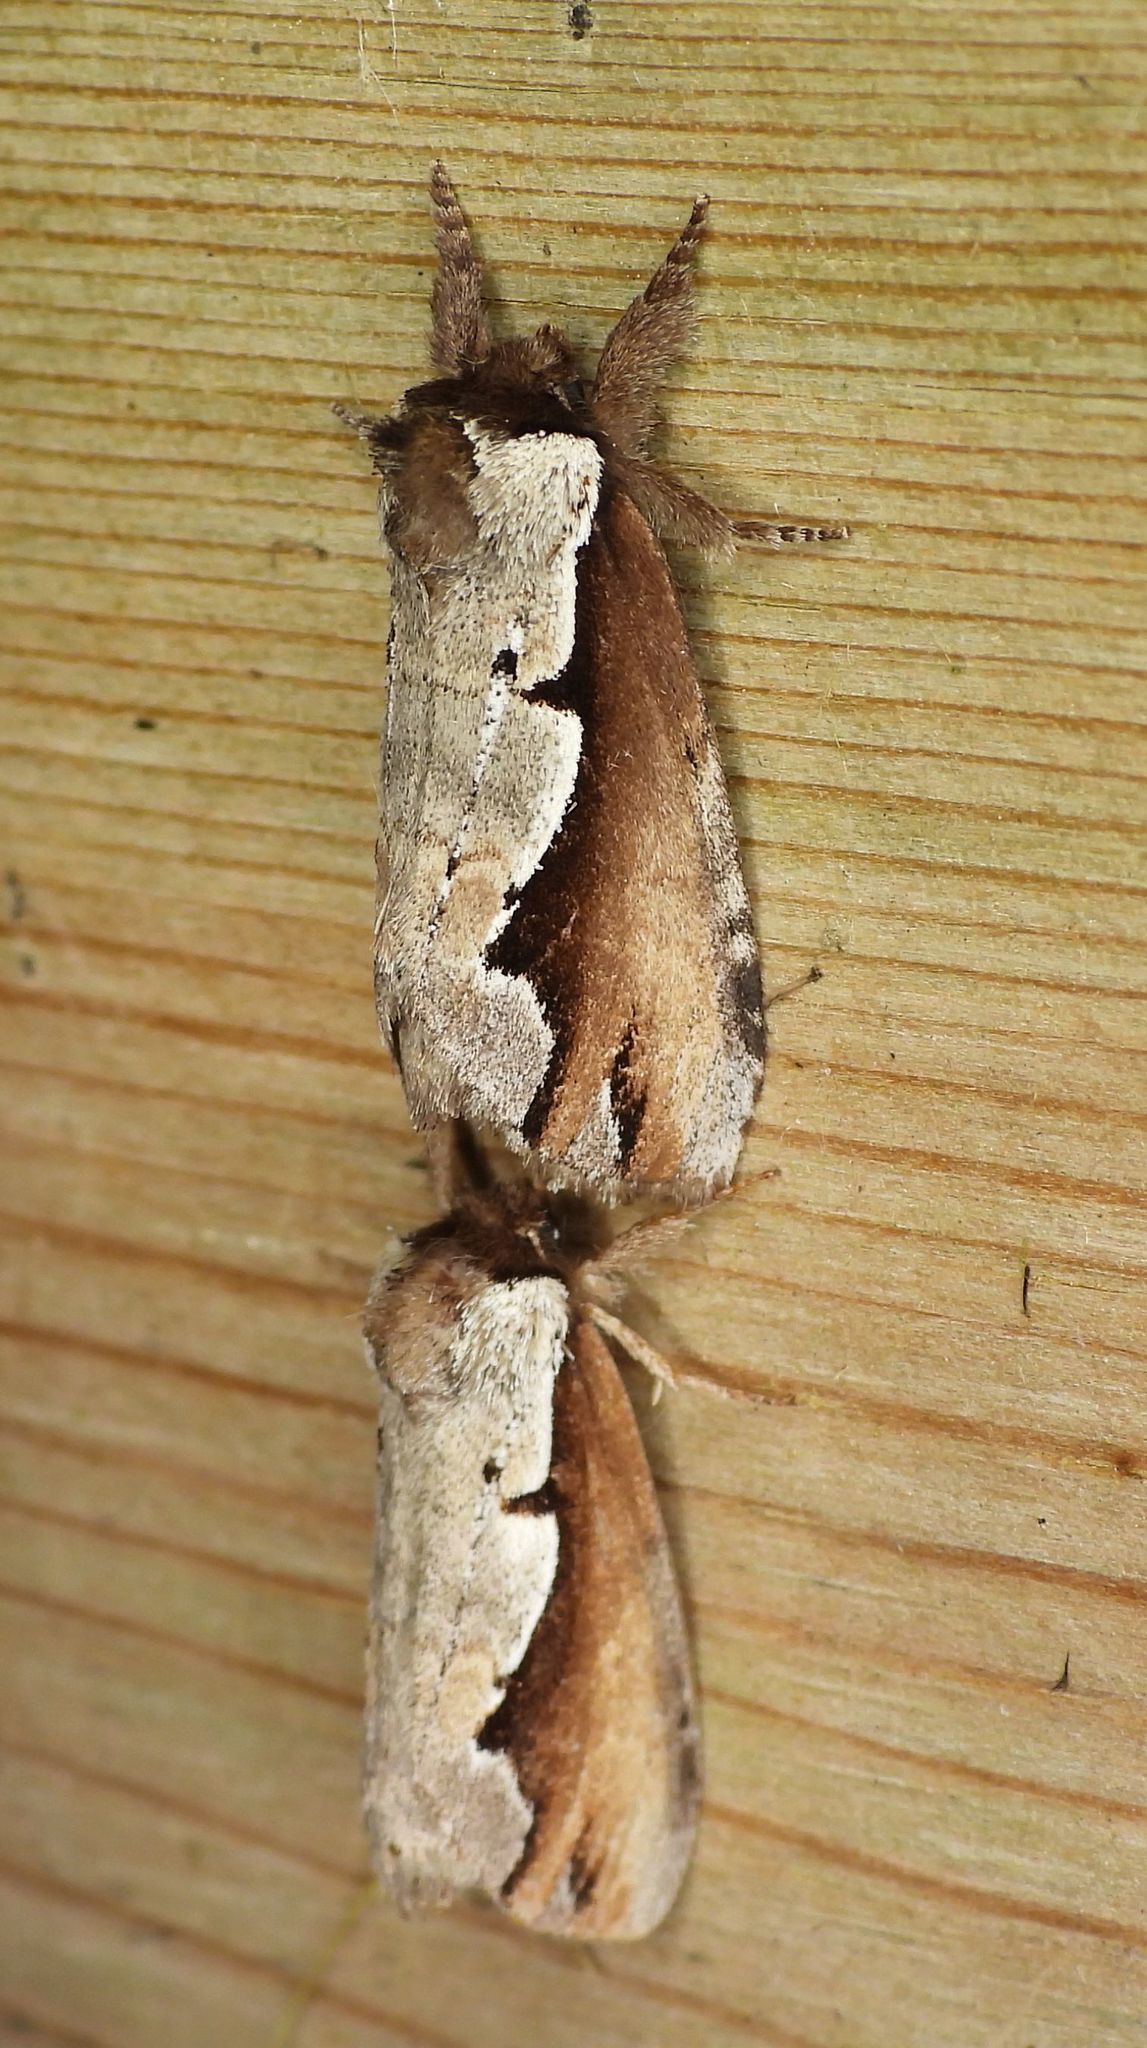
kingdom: Animalia
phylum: Arthropoda
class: Insecta
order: Lepidoptera
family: Notodontidae
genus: Nerice
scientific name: Nerice bidentata
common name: Double-toothed prominent
